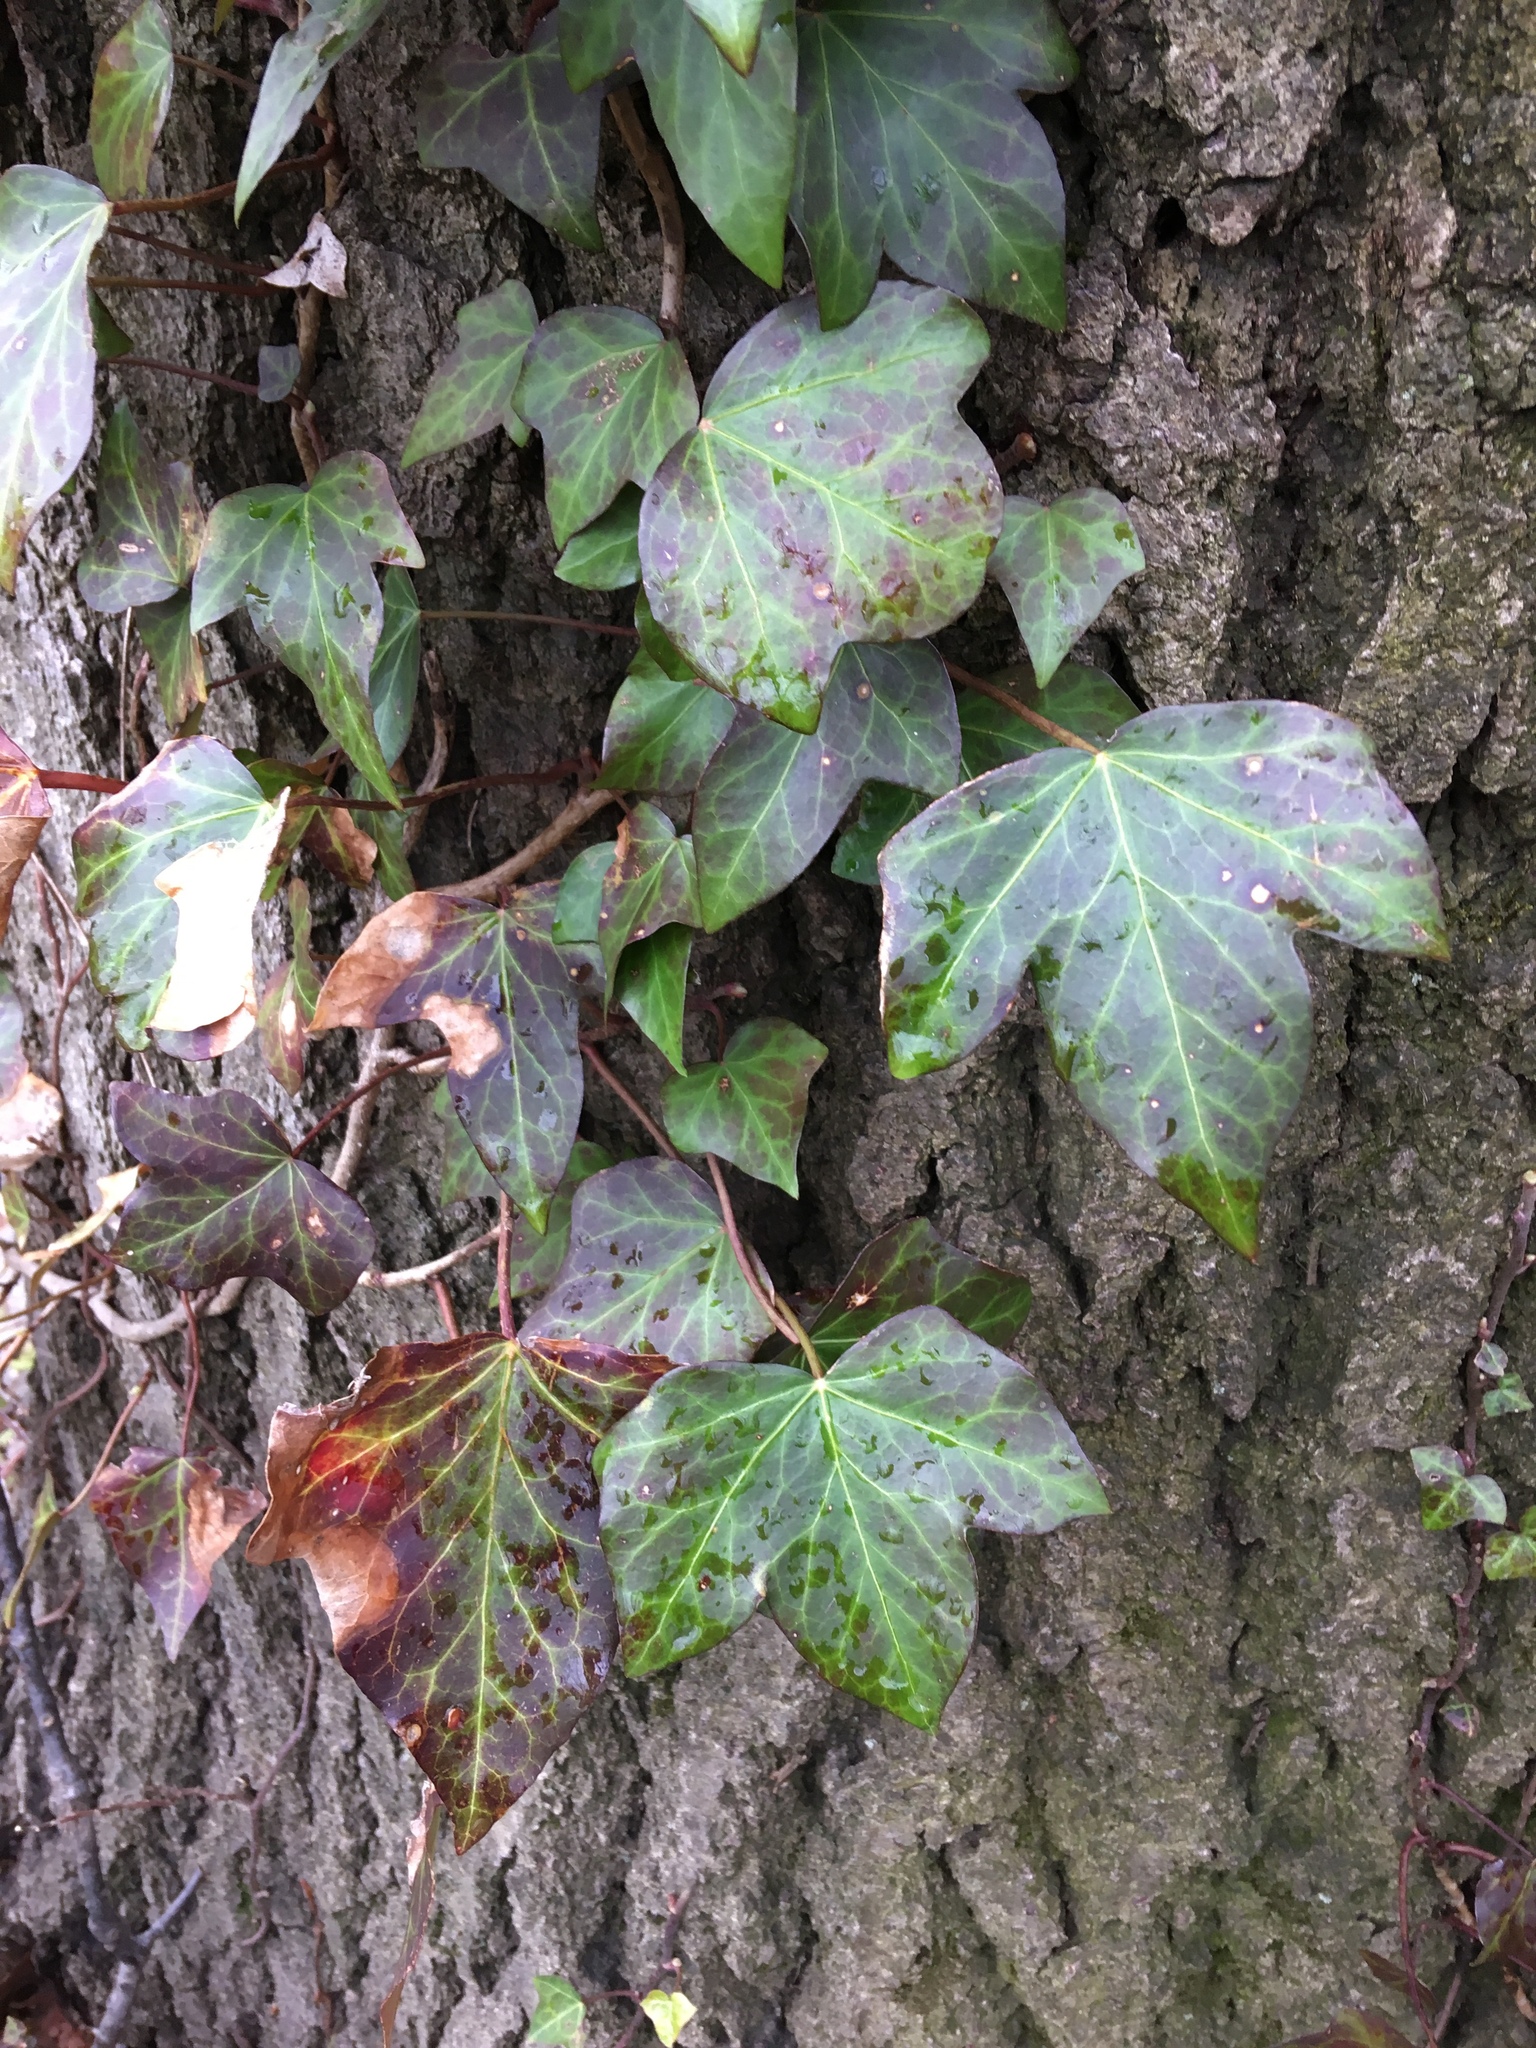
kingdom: Plantae
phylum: Tracheophyta
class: Magnoliopsida
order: Apiales
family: Araliaceae
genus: Hedera
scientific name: Hedera helix
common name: Ivy
